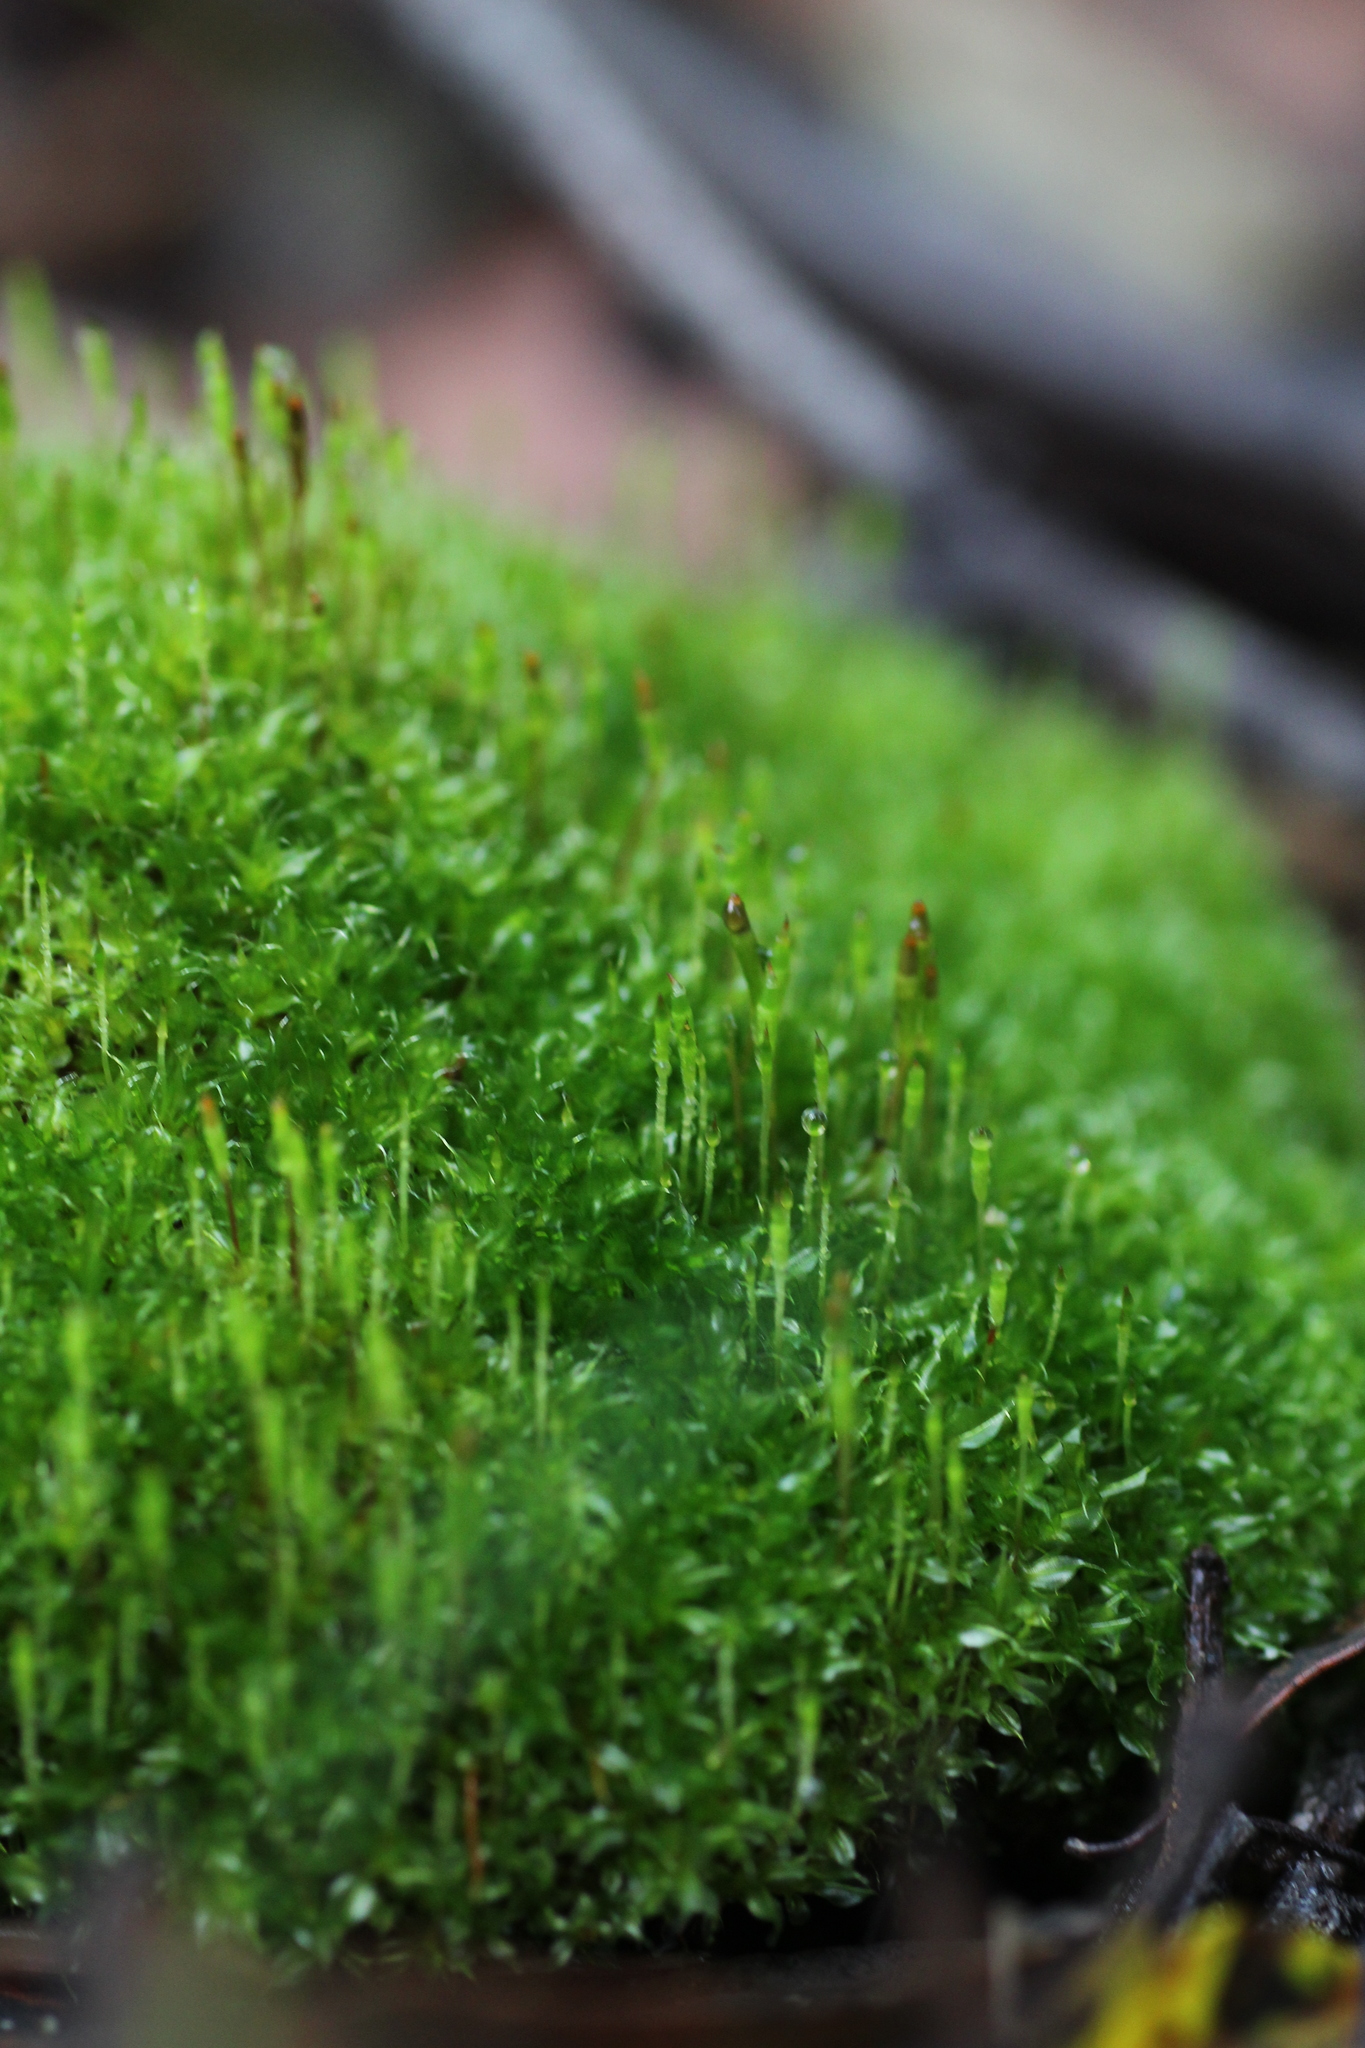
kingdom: Plantae
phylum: Bryophyta
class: Bryopsida
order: Splachnales
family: Splachnaceae
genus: Tayloria
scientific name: Tayloria octoblephara
